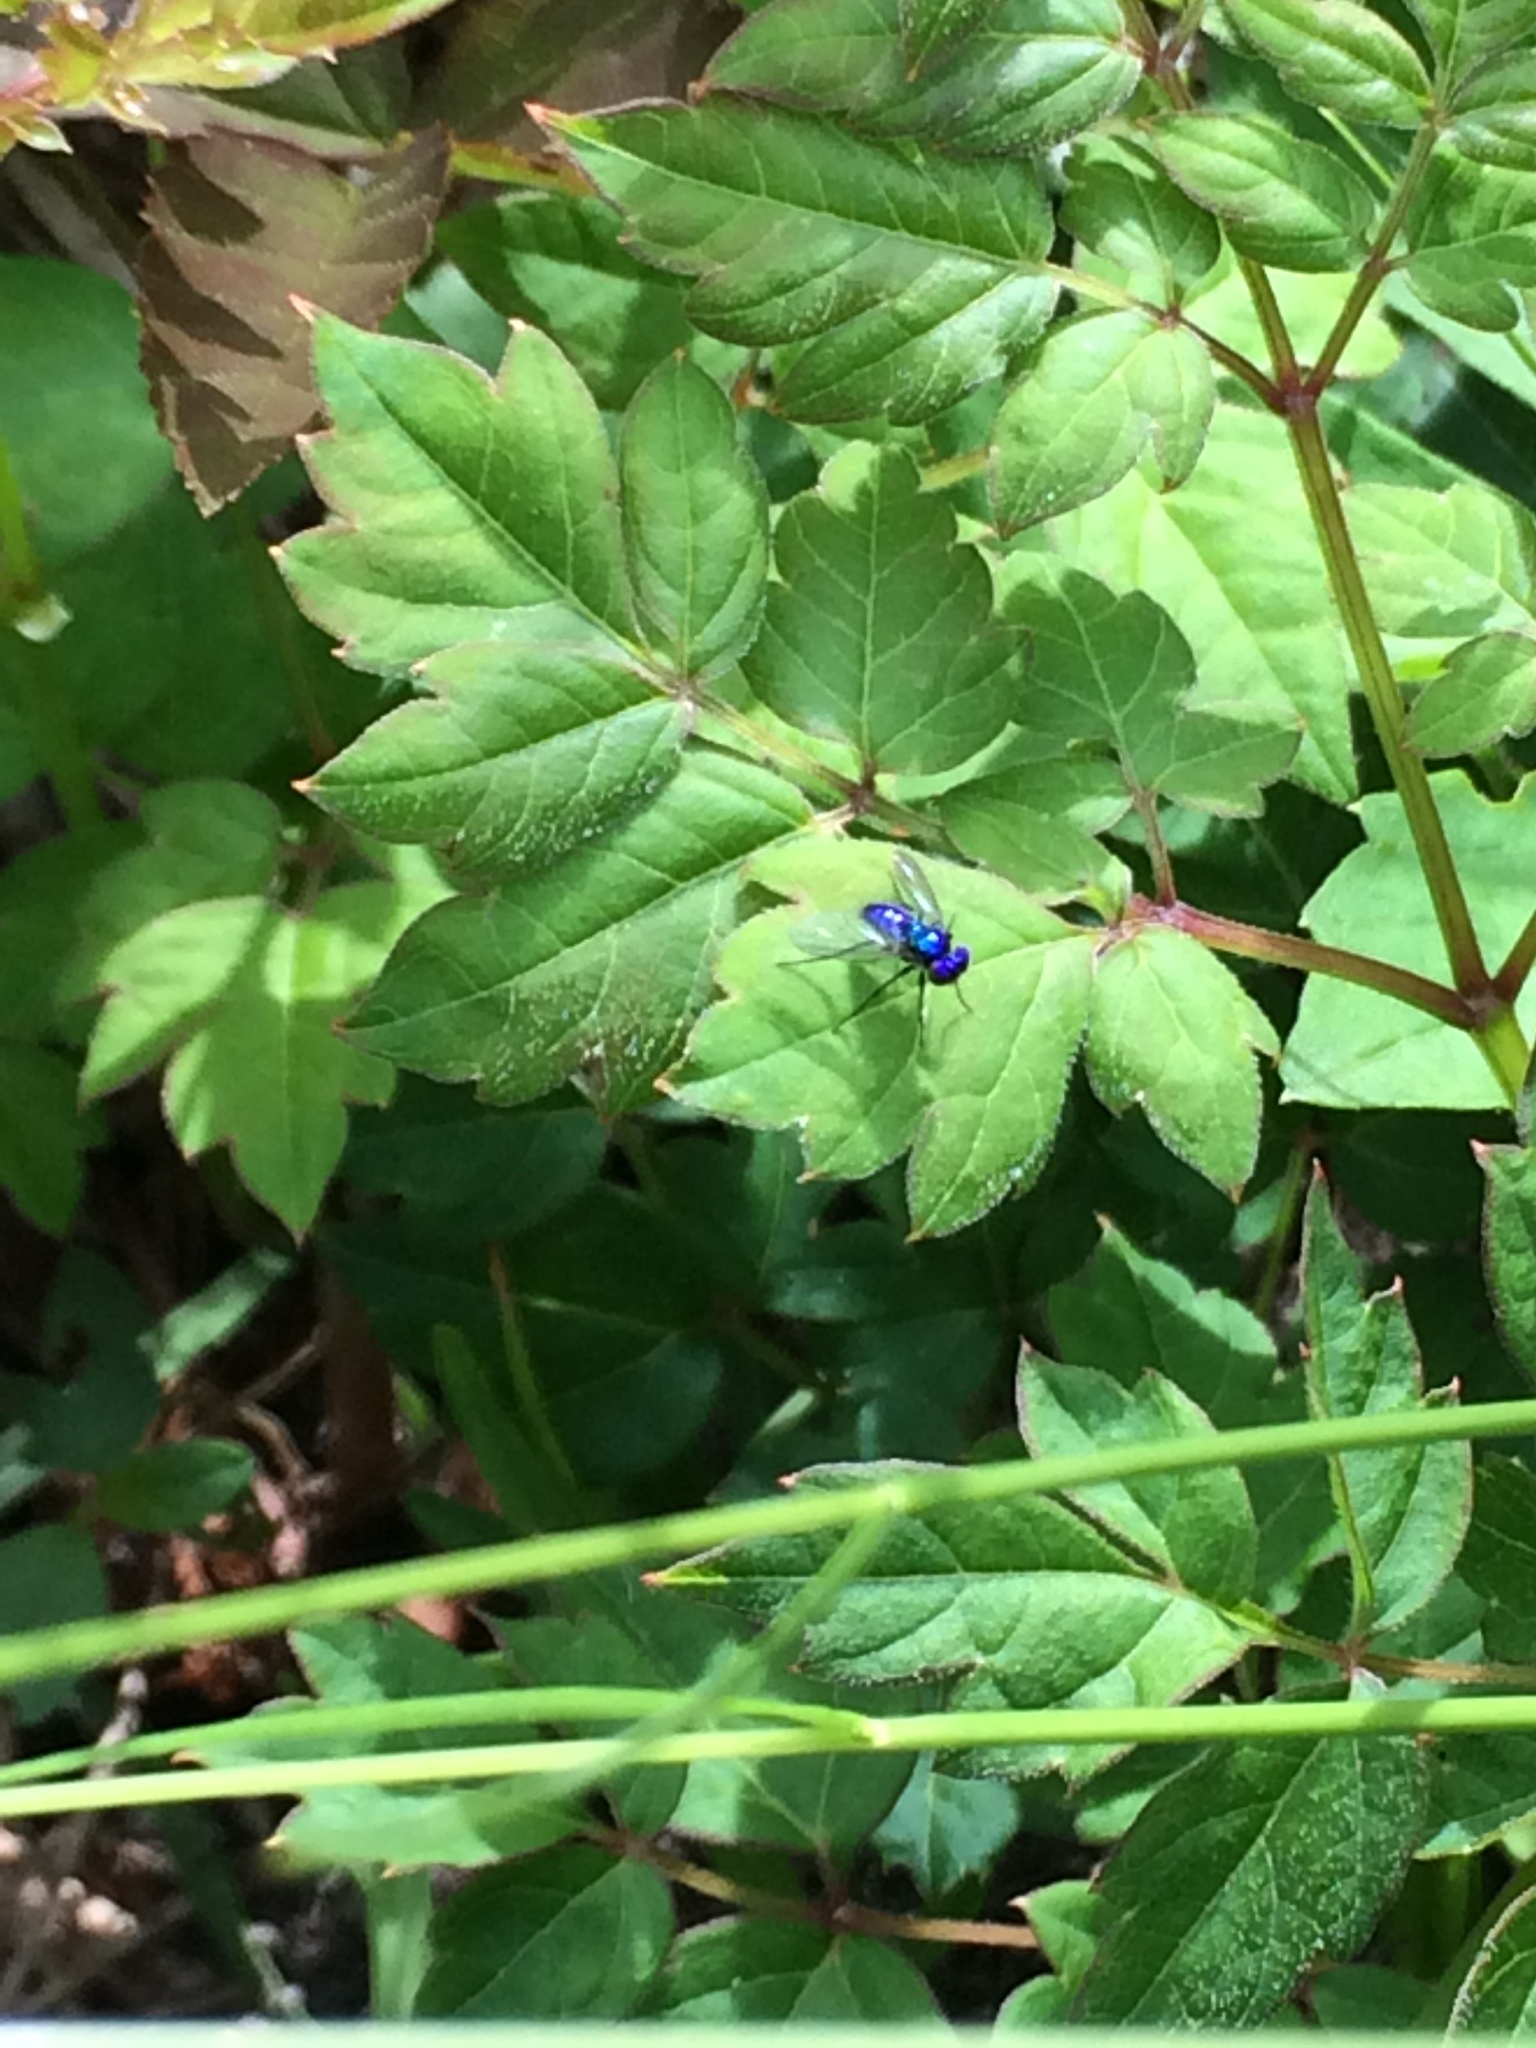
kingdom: Animalia
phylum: Arthropoda
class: Insecta
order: Diptera
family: Dolichopodidae
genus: Condylostylus
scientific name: Condylostylus mundus
